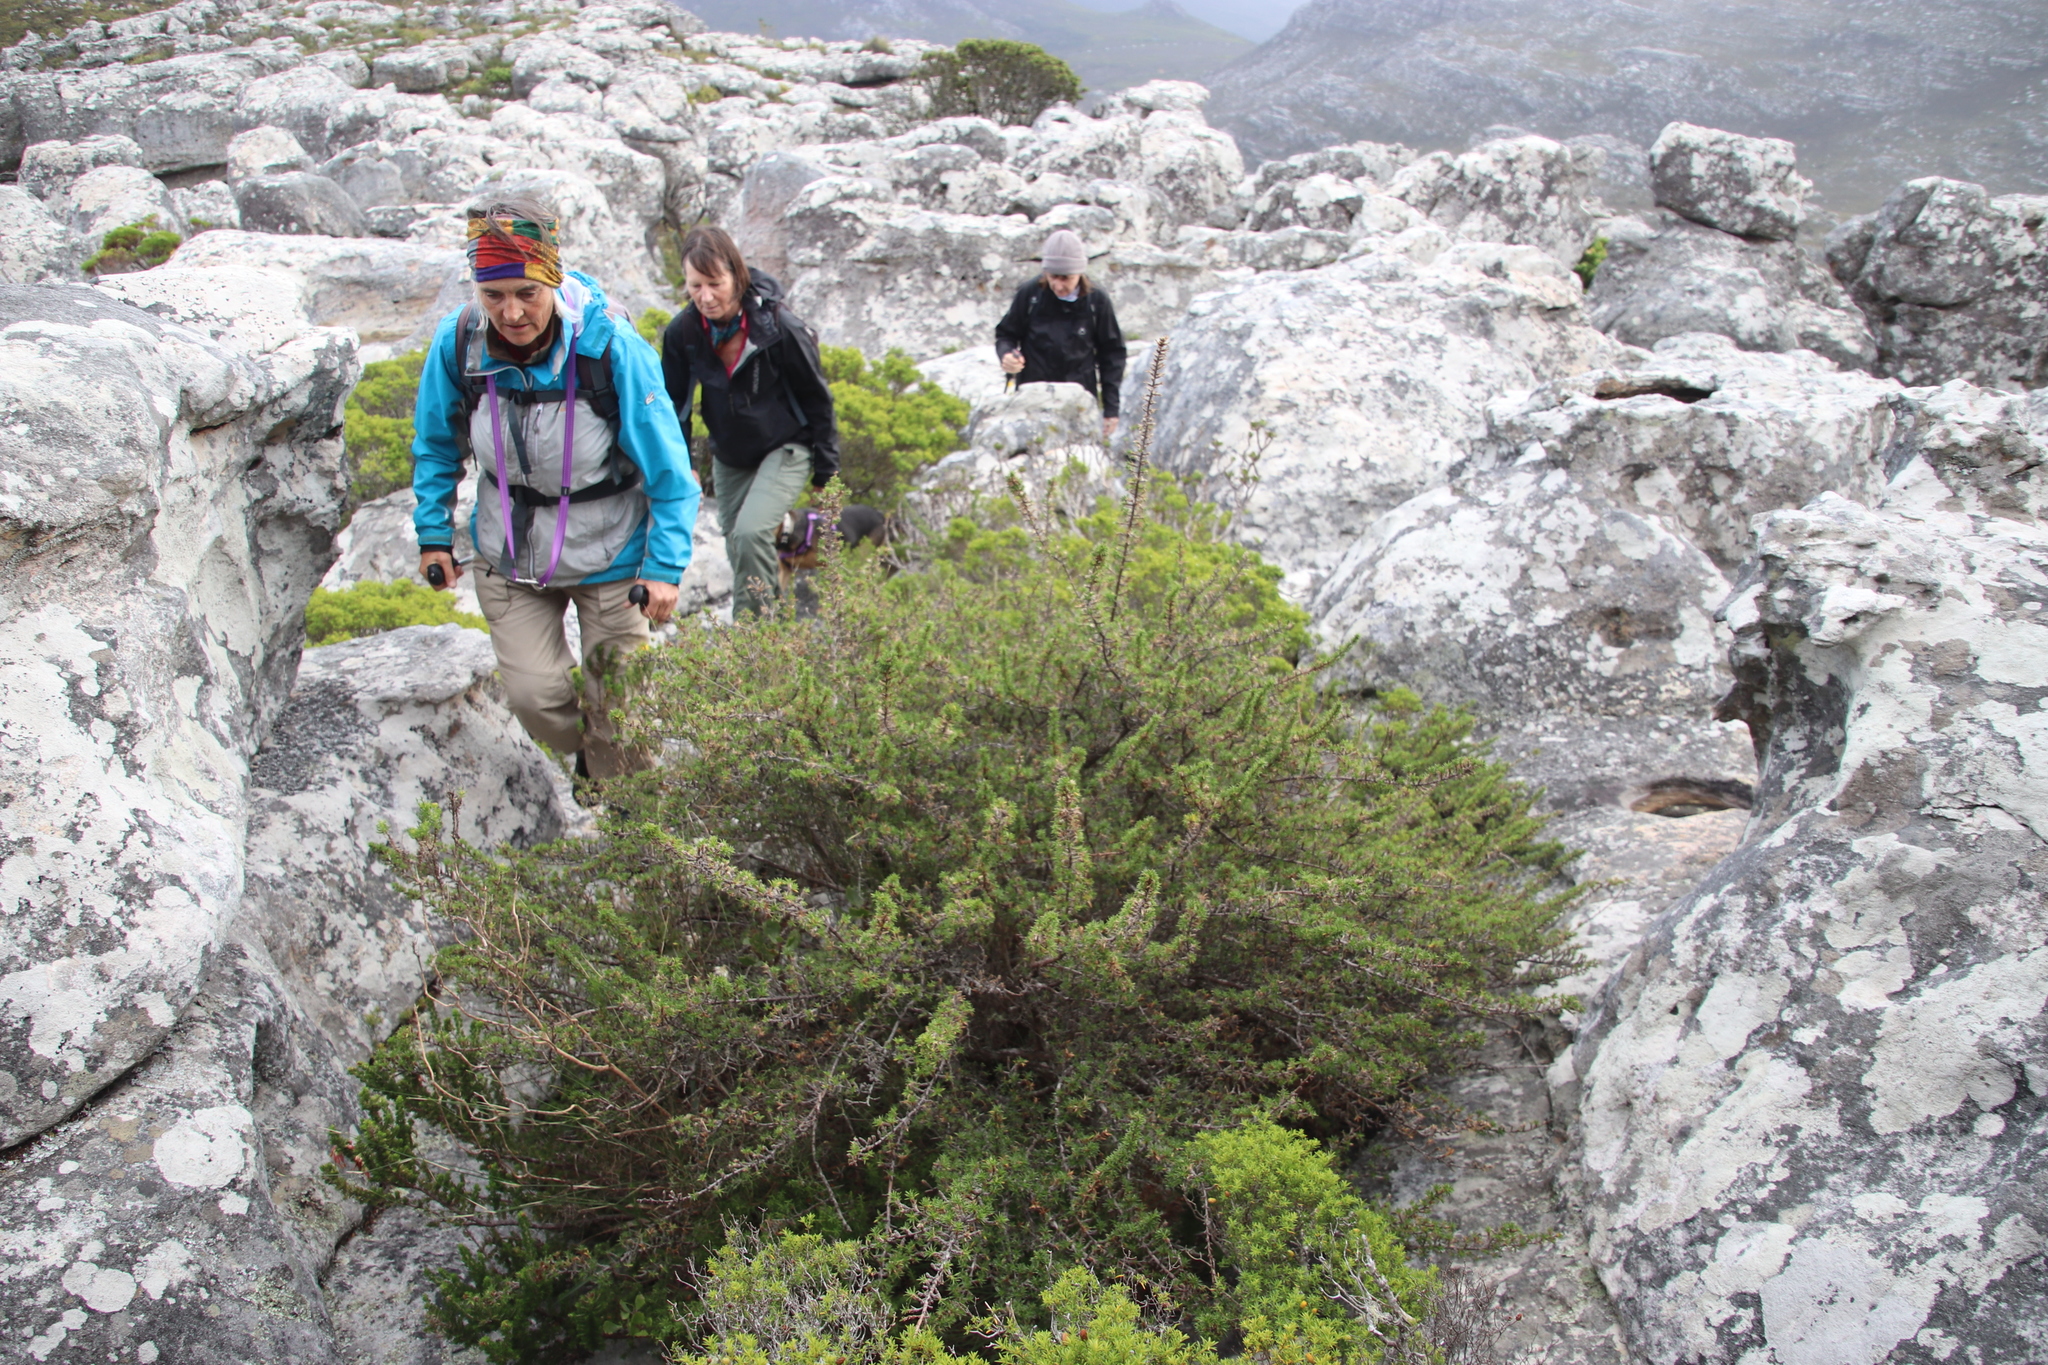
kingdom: Plantae
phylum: Tracheophyta
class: Magnoliopsida
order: Rosales
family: Rosaceae
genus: Cliffortia
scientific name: Cliffortia ruscifolia
